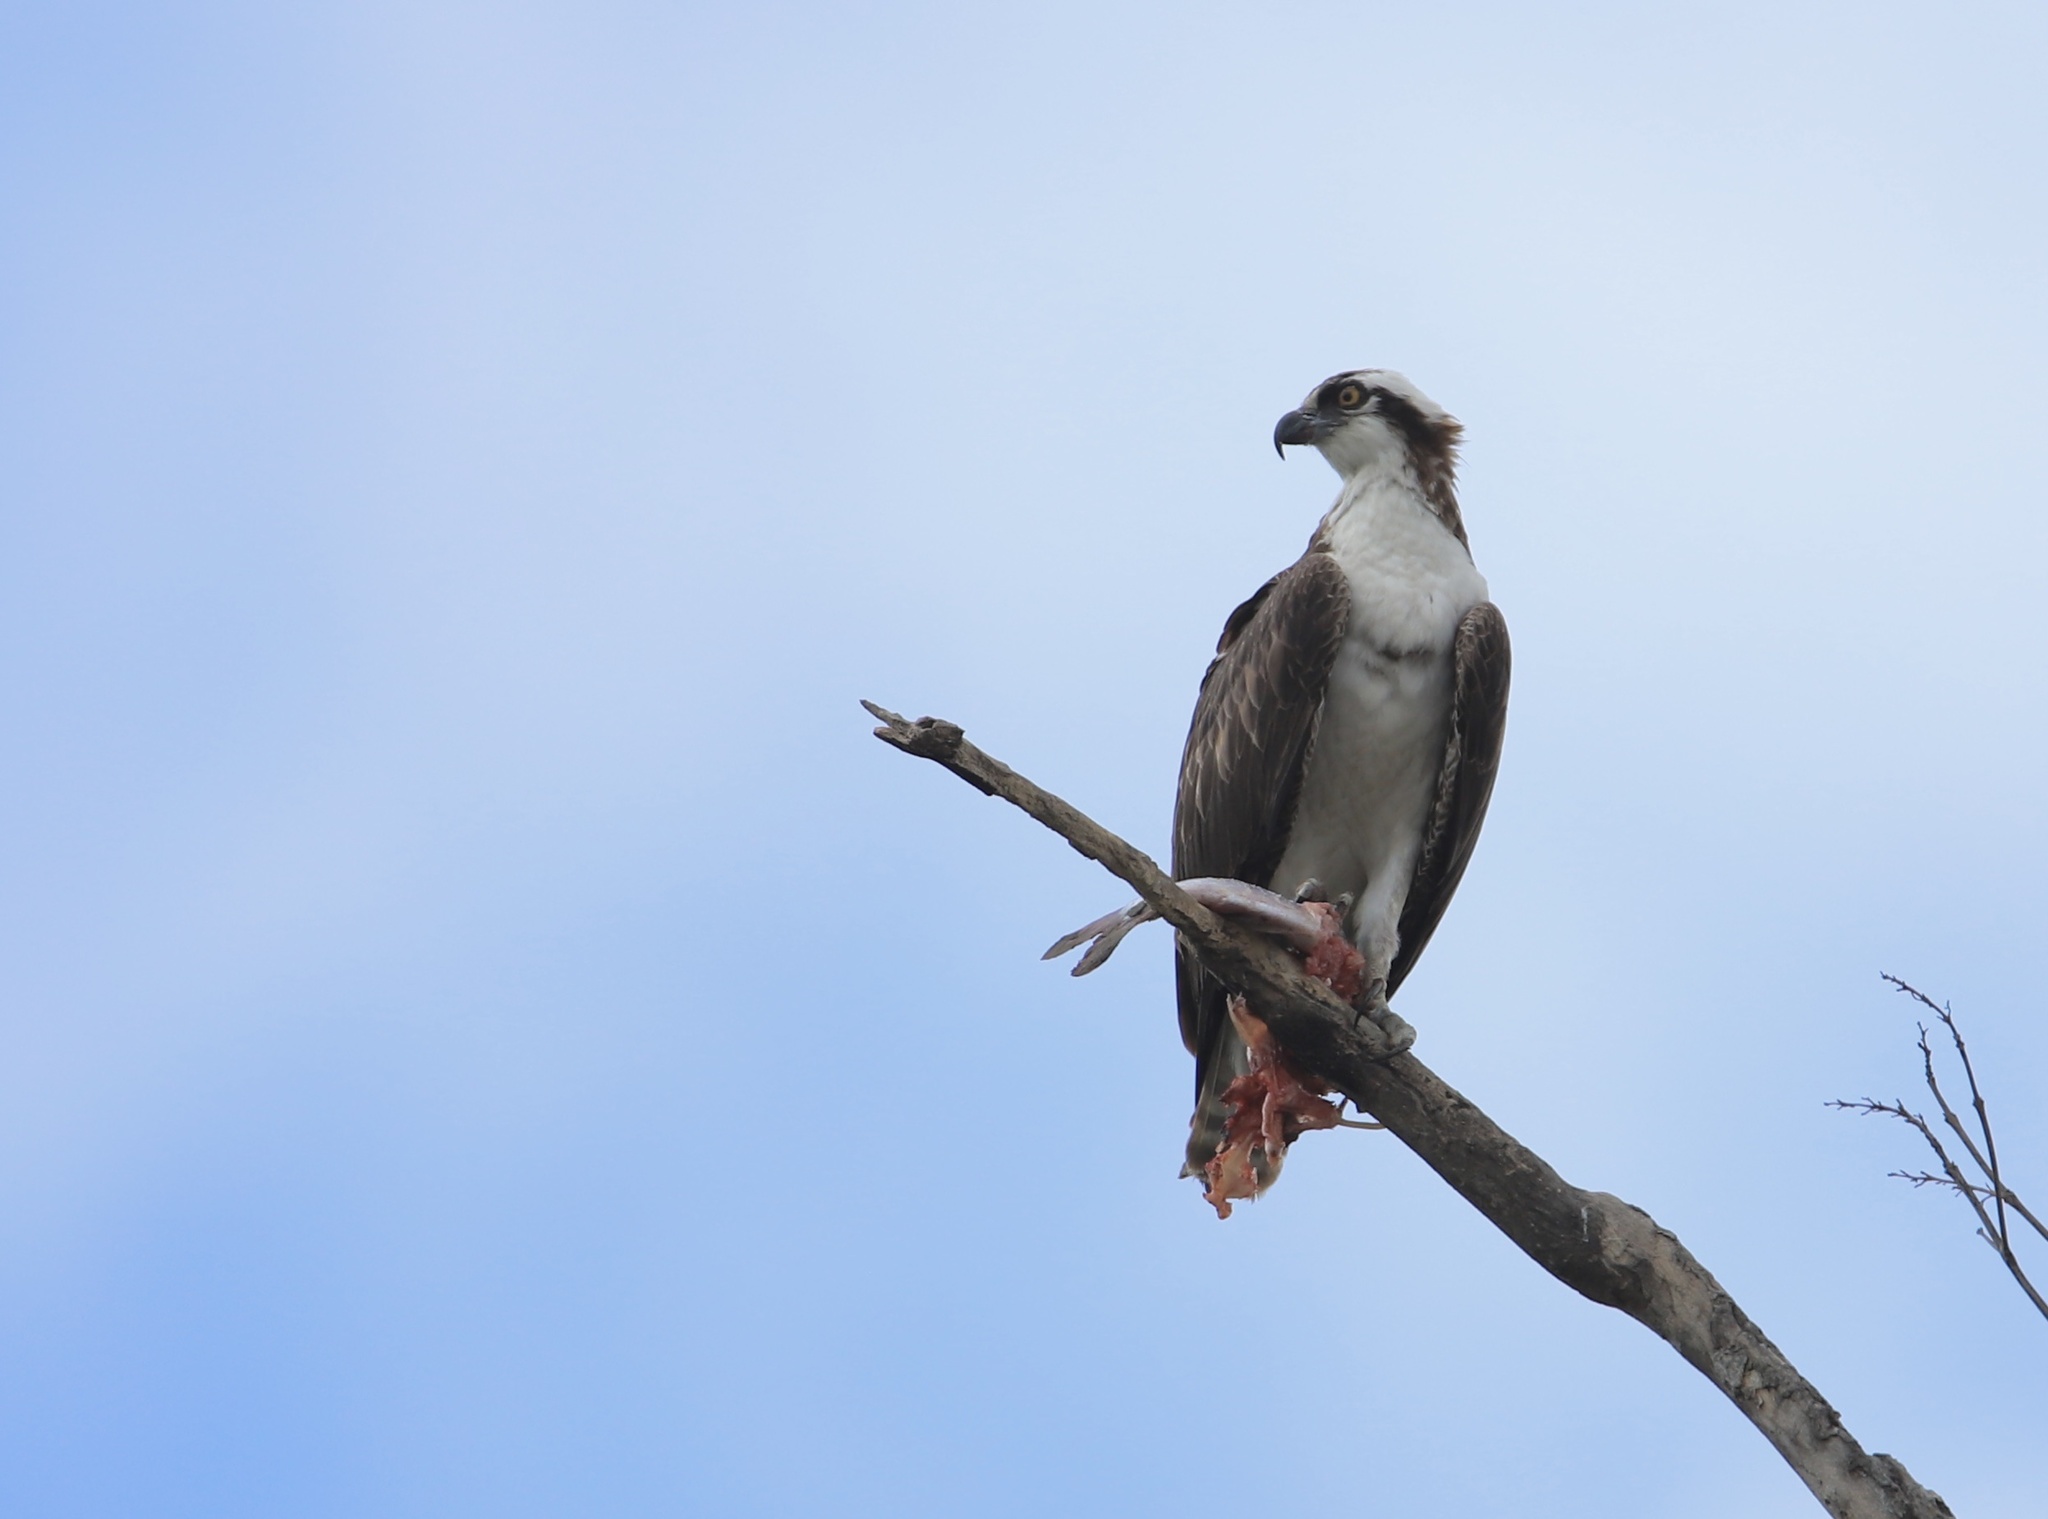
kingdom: Animalia
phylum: Chordata
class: Aves
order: Accipitriformes
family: Pandionidae
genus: Pandion
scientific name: Pandion haliaetus
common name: Osprey
